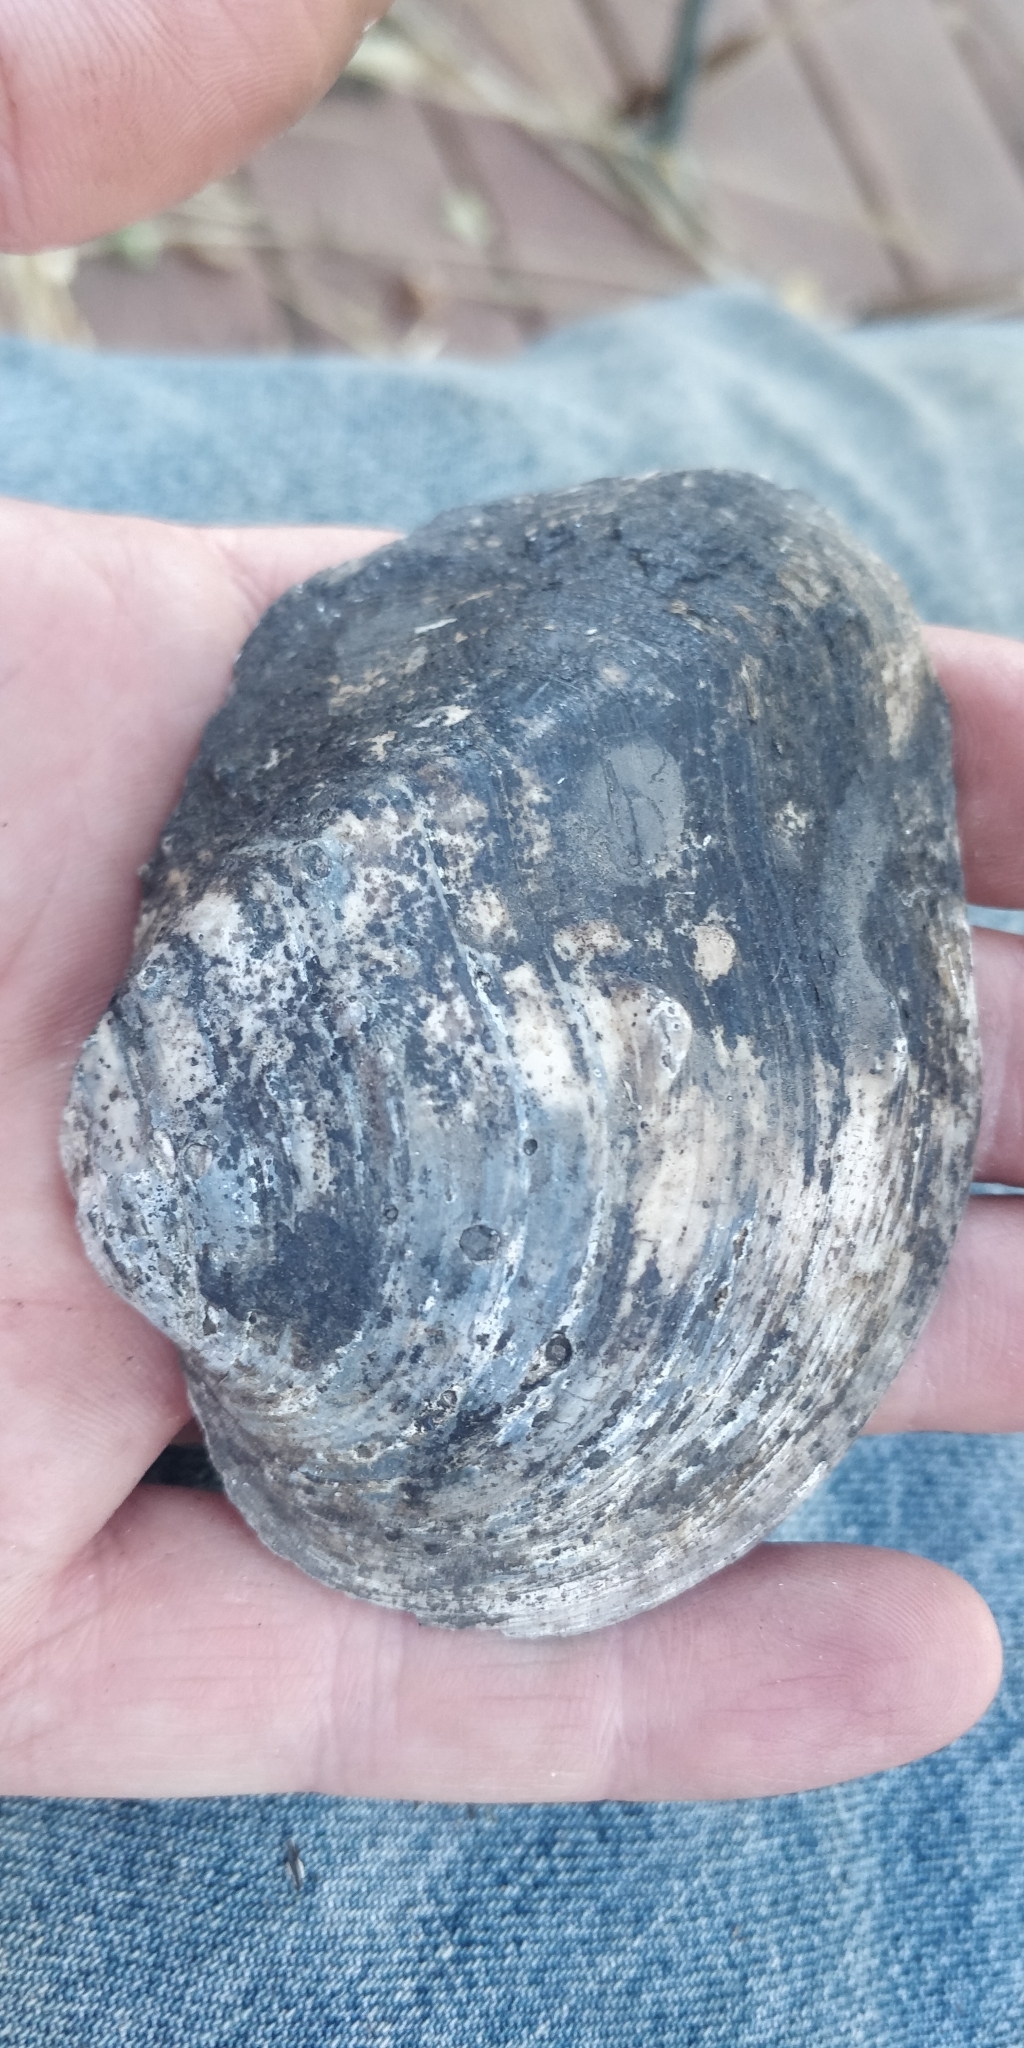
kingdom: Animalia
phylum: Mollusca
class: Bivalvia
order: Unionida
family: Unionidae
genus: Quadrula
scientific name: Quadrula quadrula
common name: Mapleleaf
